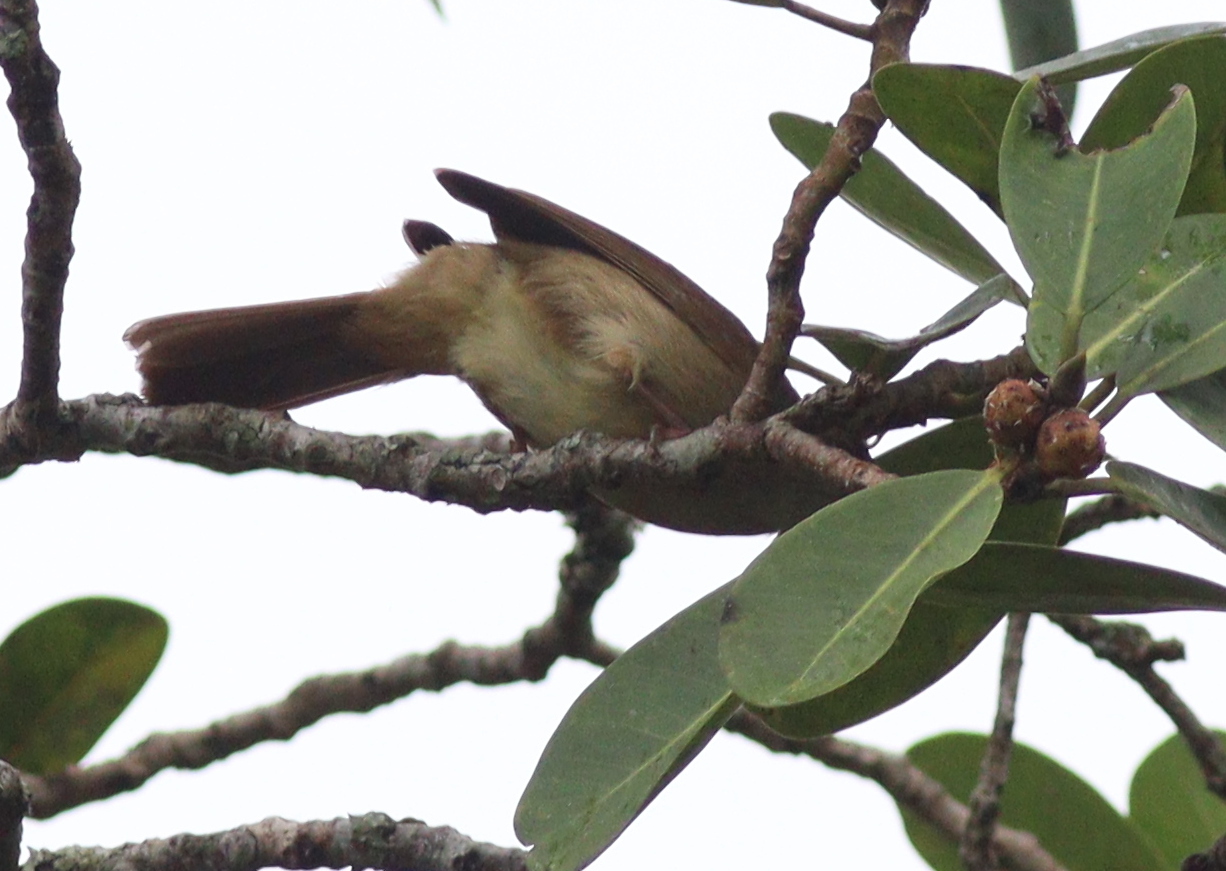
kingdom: Animalia
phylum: Chordata
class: Aves
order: Passeriformes
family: Pycnonotidae
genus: Iole
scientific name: Iole viridescens
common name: Olive bulbul
